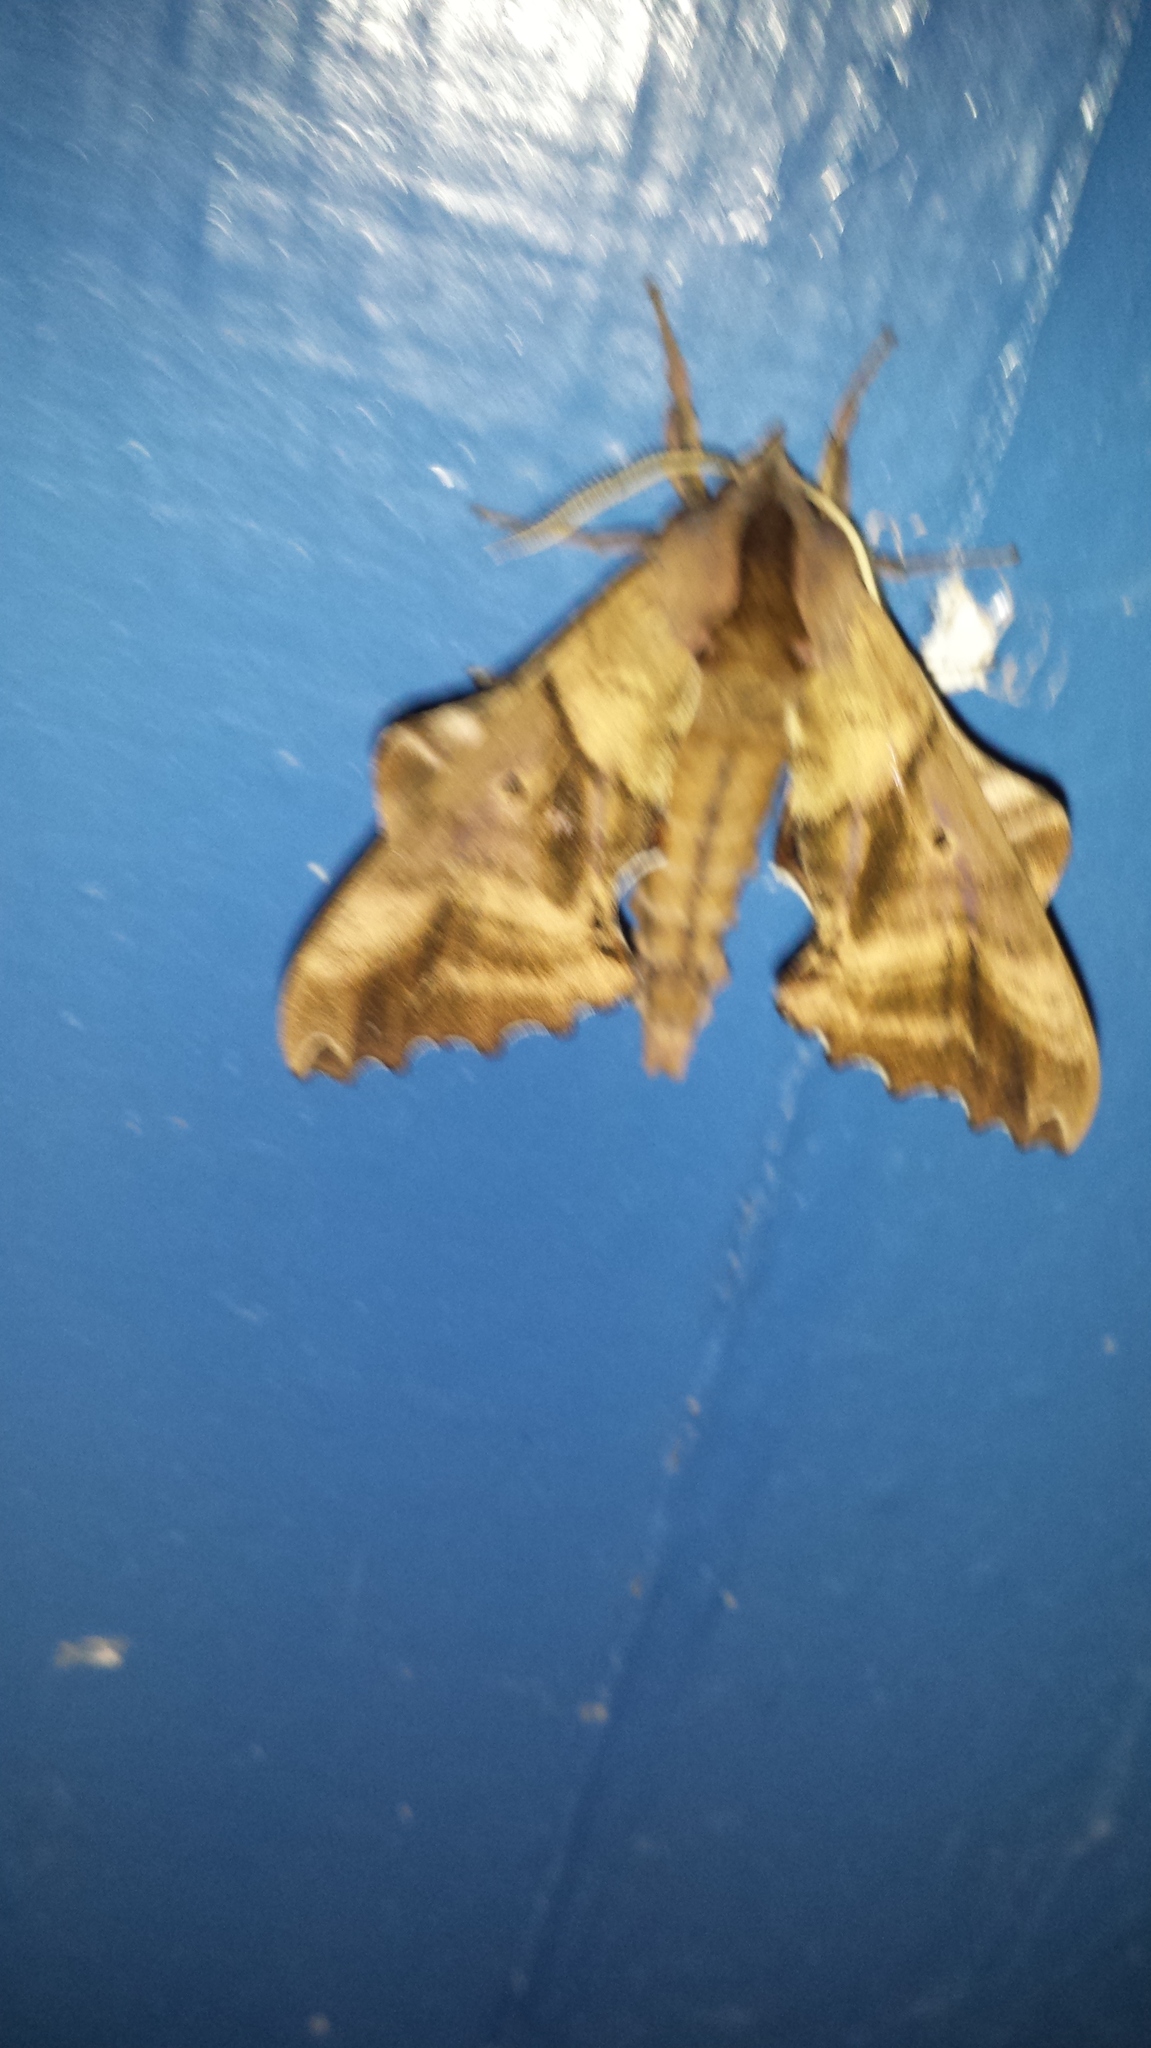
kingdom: Animalia
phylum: Arthropoda
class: Insecta
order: Lepidoptera
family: Sphingidae
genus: Paonias
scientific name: Paonias excaecata
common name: Blind-eyed sphinx
